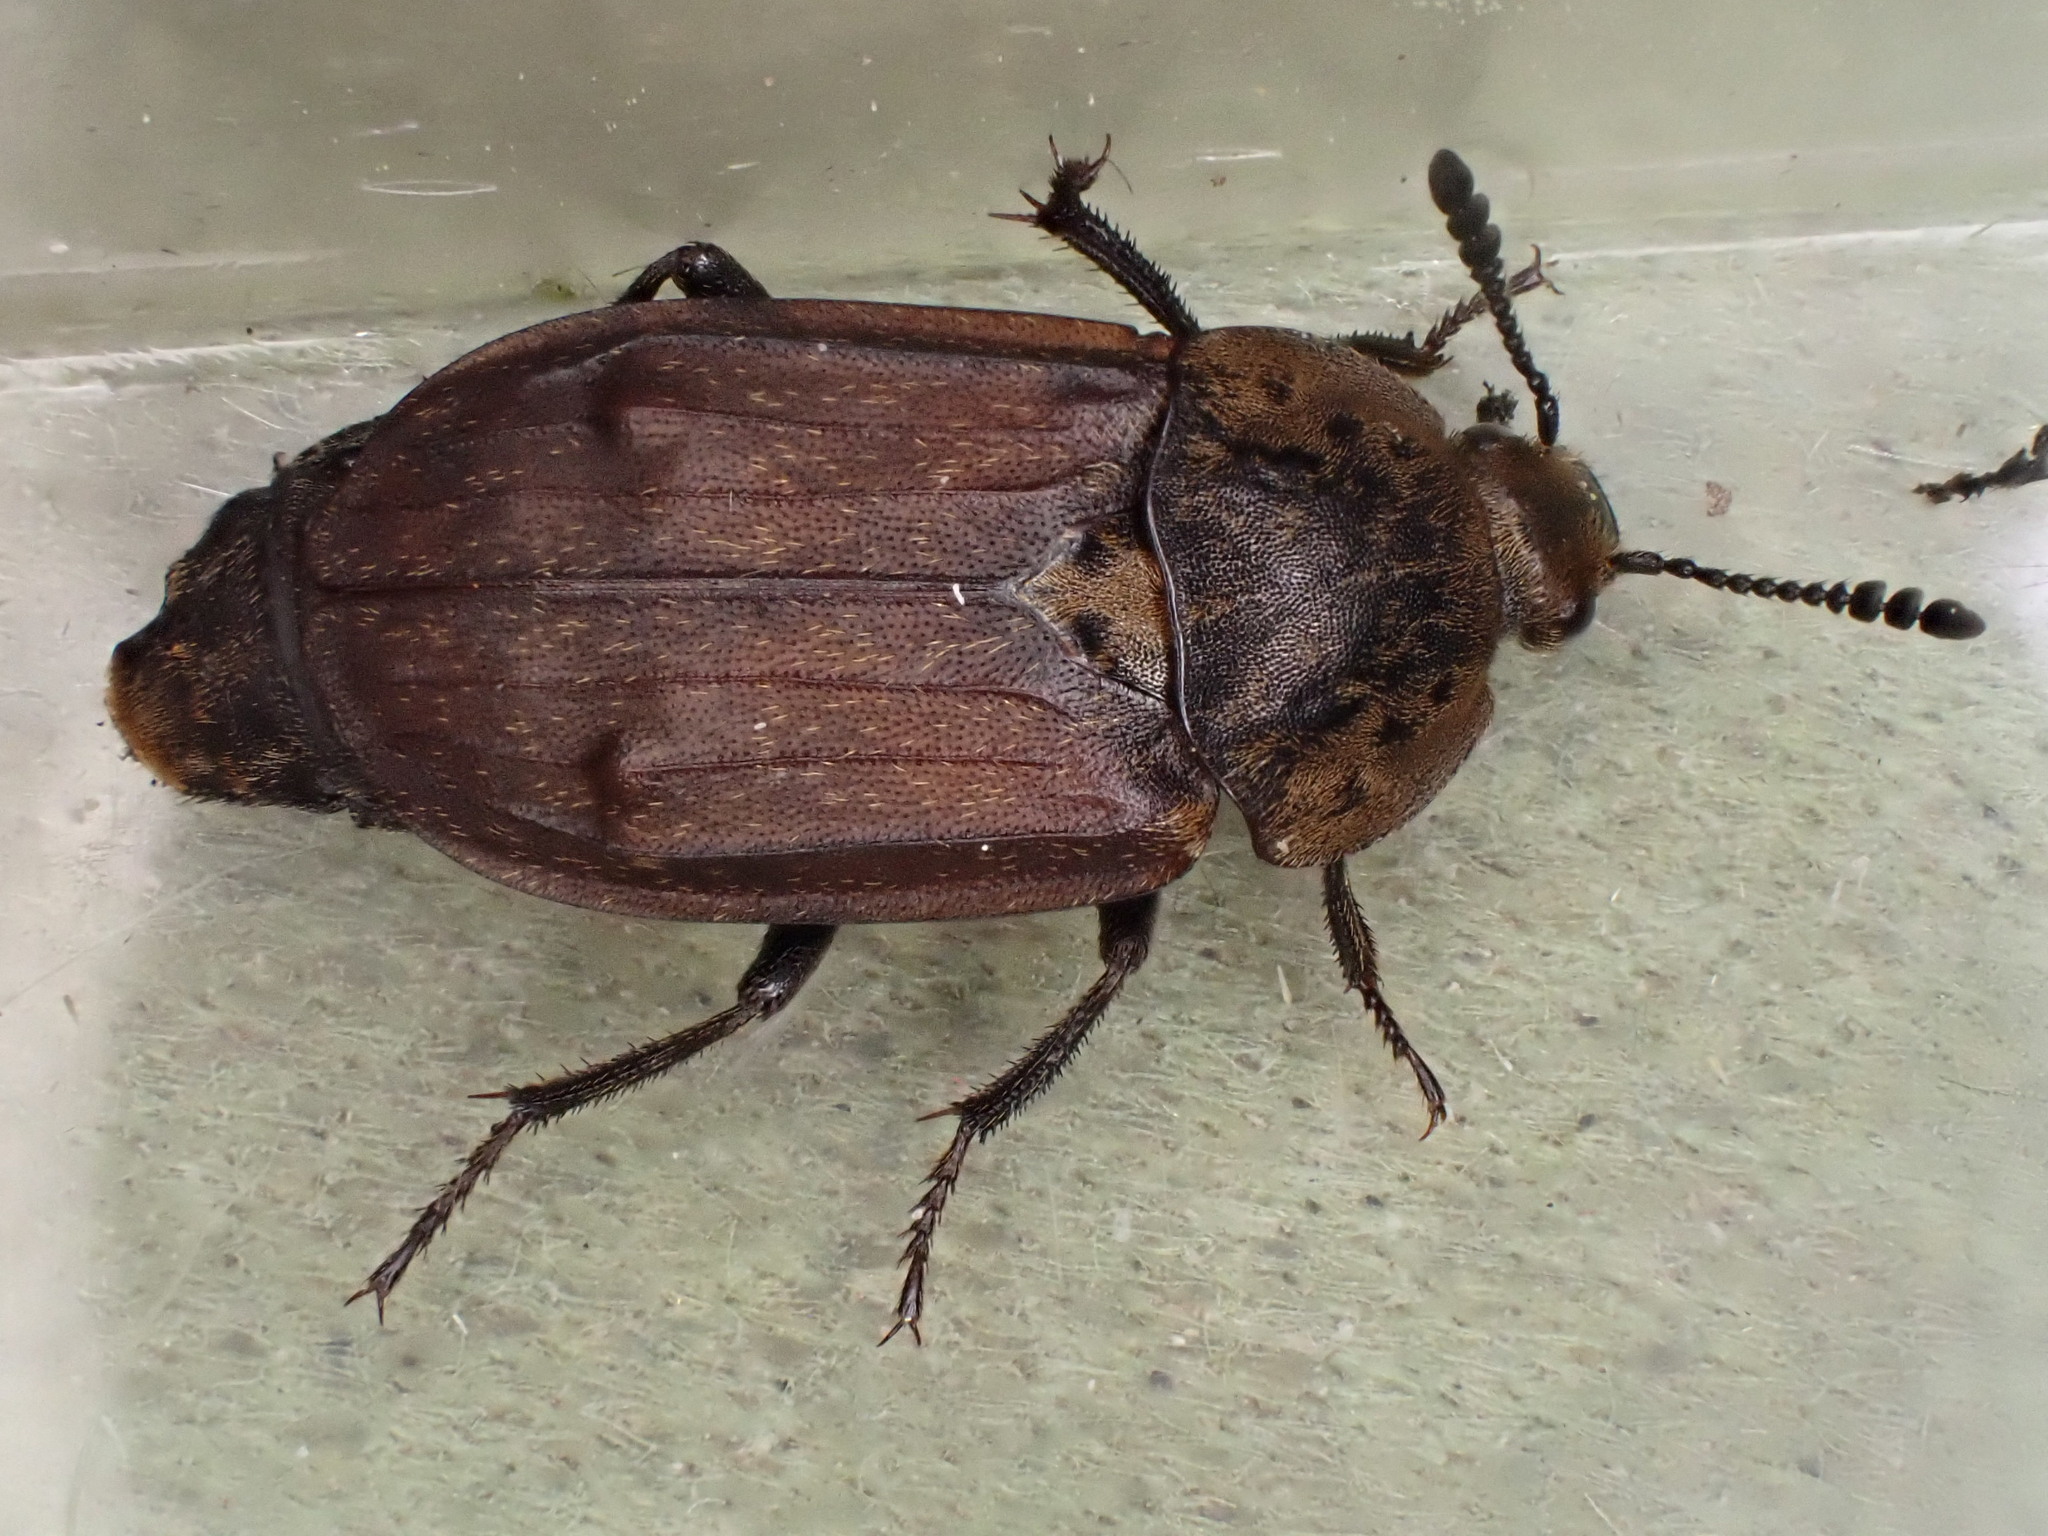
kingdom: Animalia
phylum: Arthropoda
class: Insecta
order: Coleoptera
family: Staphylinidae
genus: Thanatophilus
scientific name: Thanatophilus dispar
